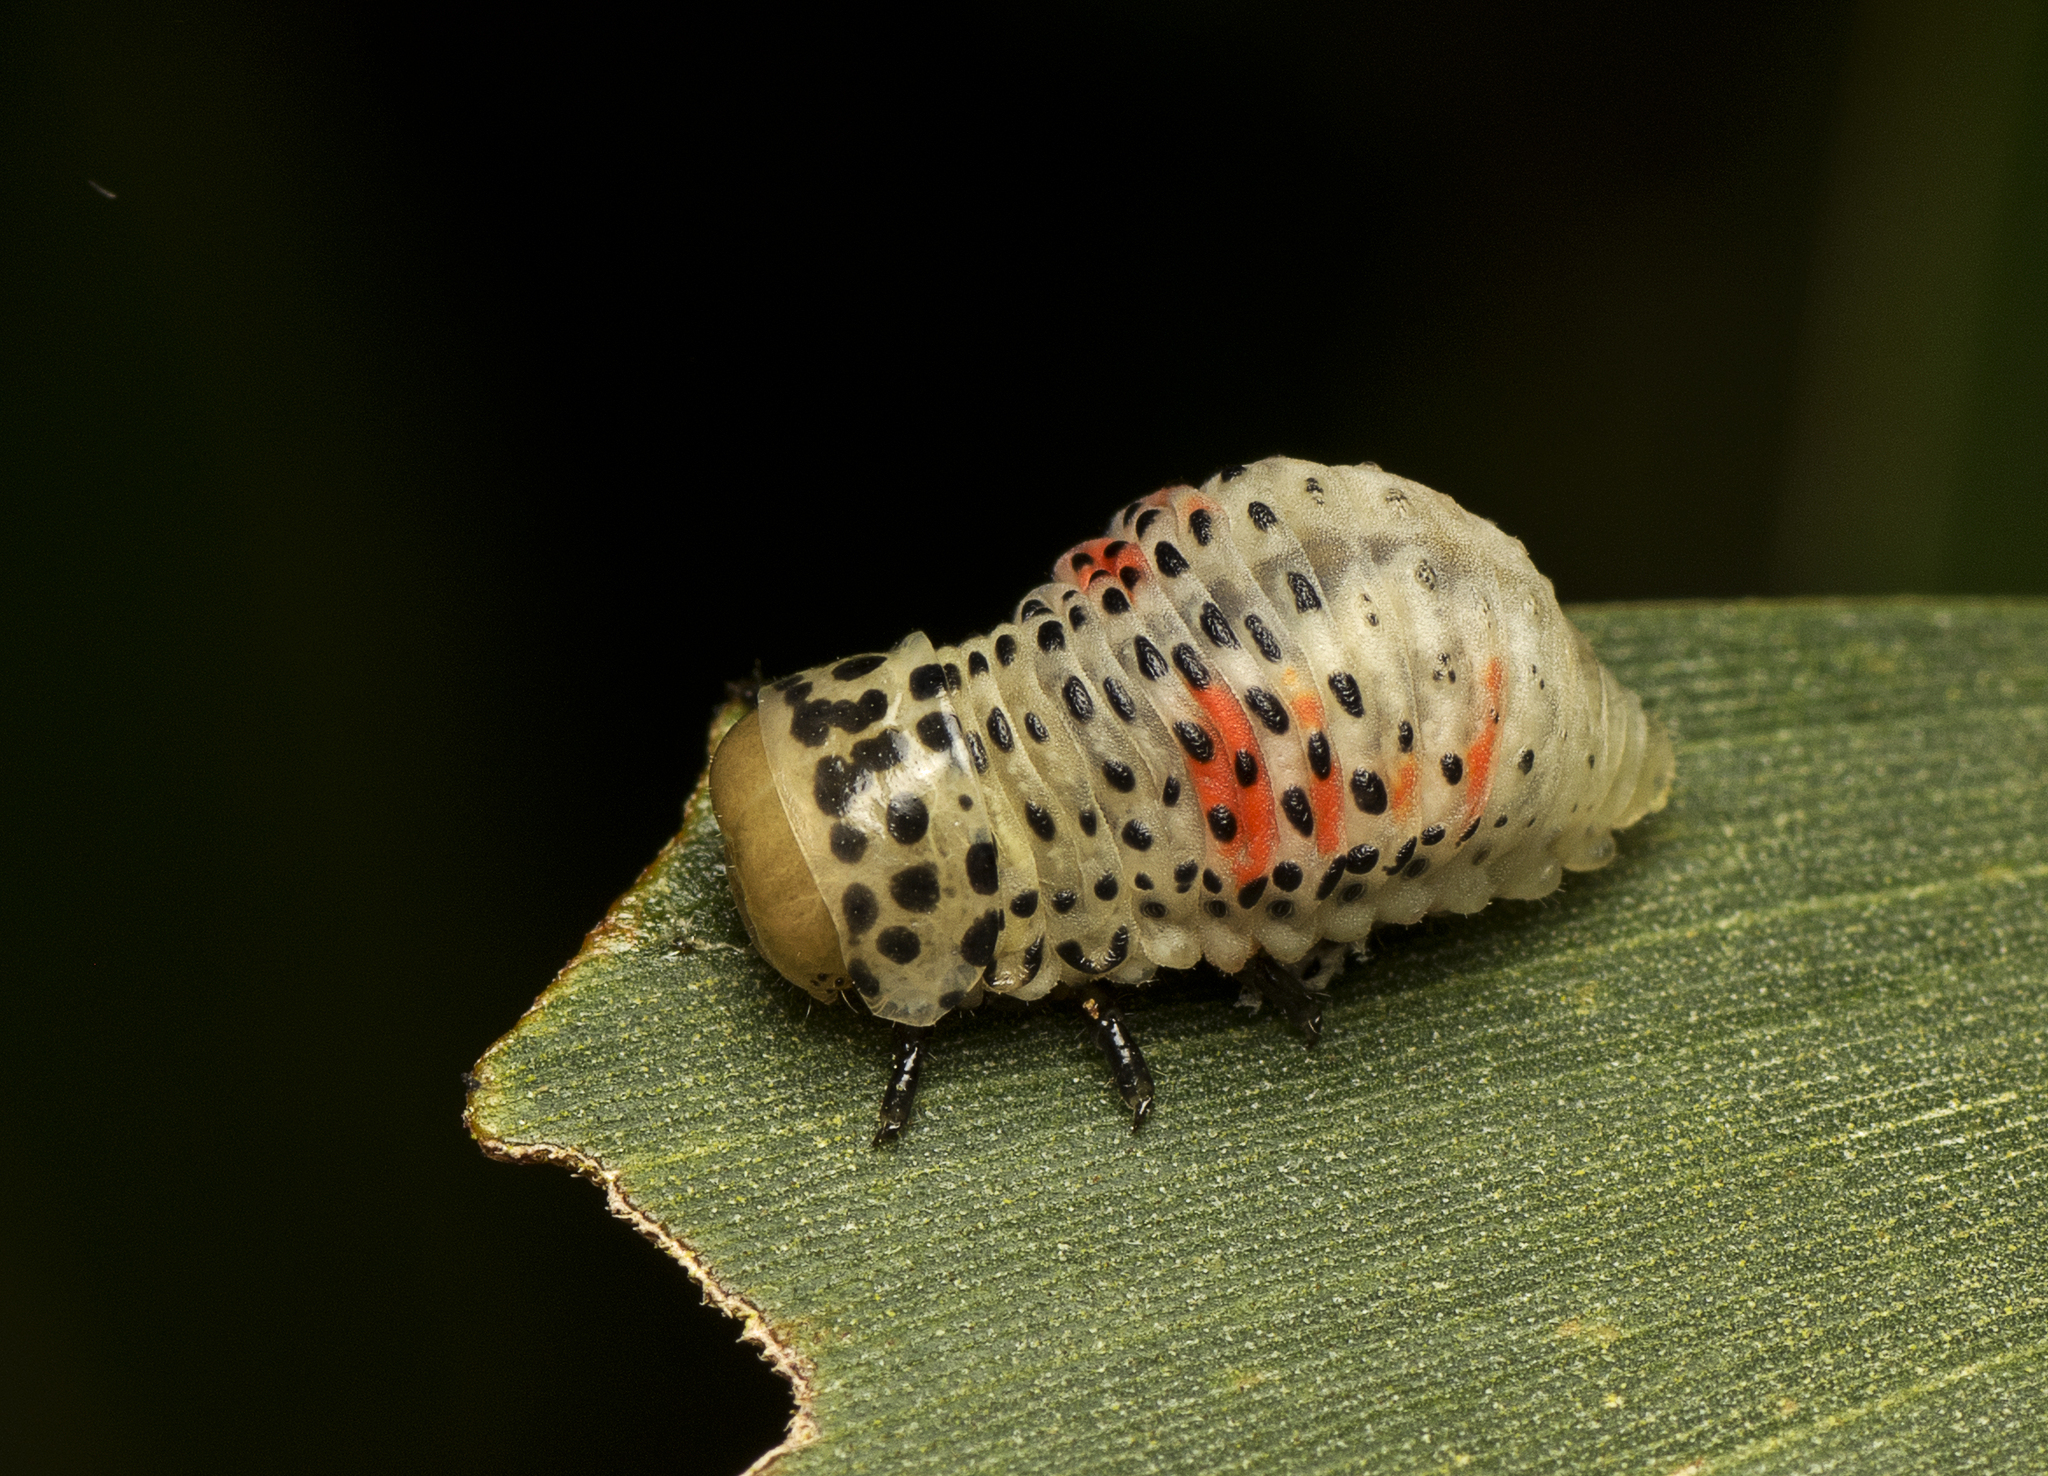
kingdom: Animalia
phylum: Arthropoda
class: Insecta
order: Coleoptera
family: Chrysomelidae
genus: Dicranosterna
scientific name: Dicranosterna
